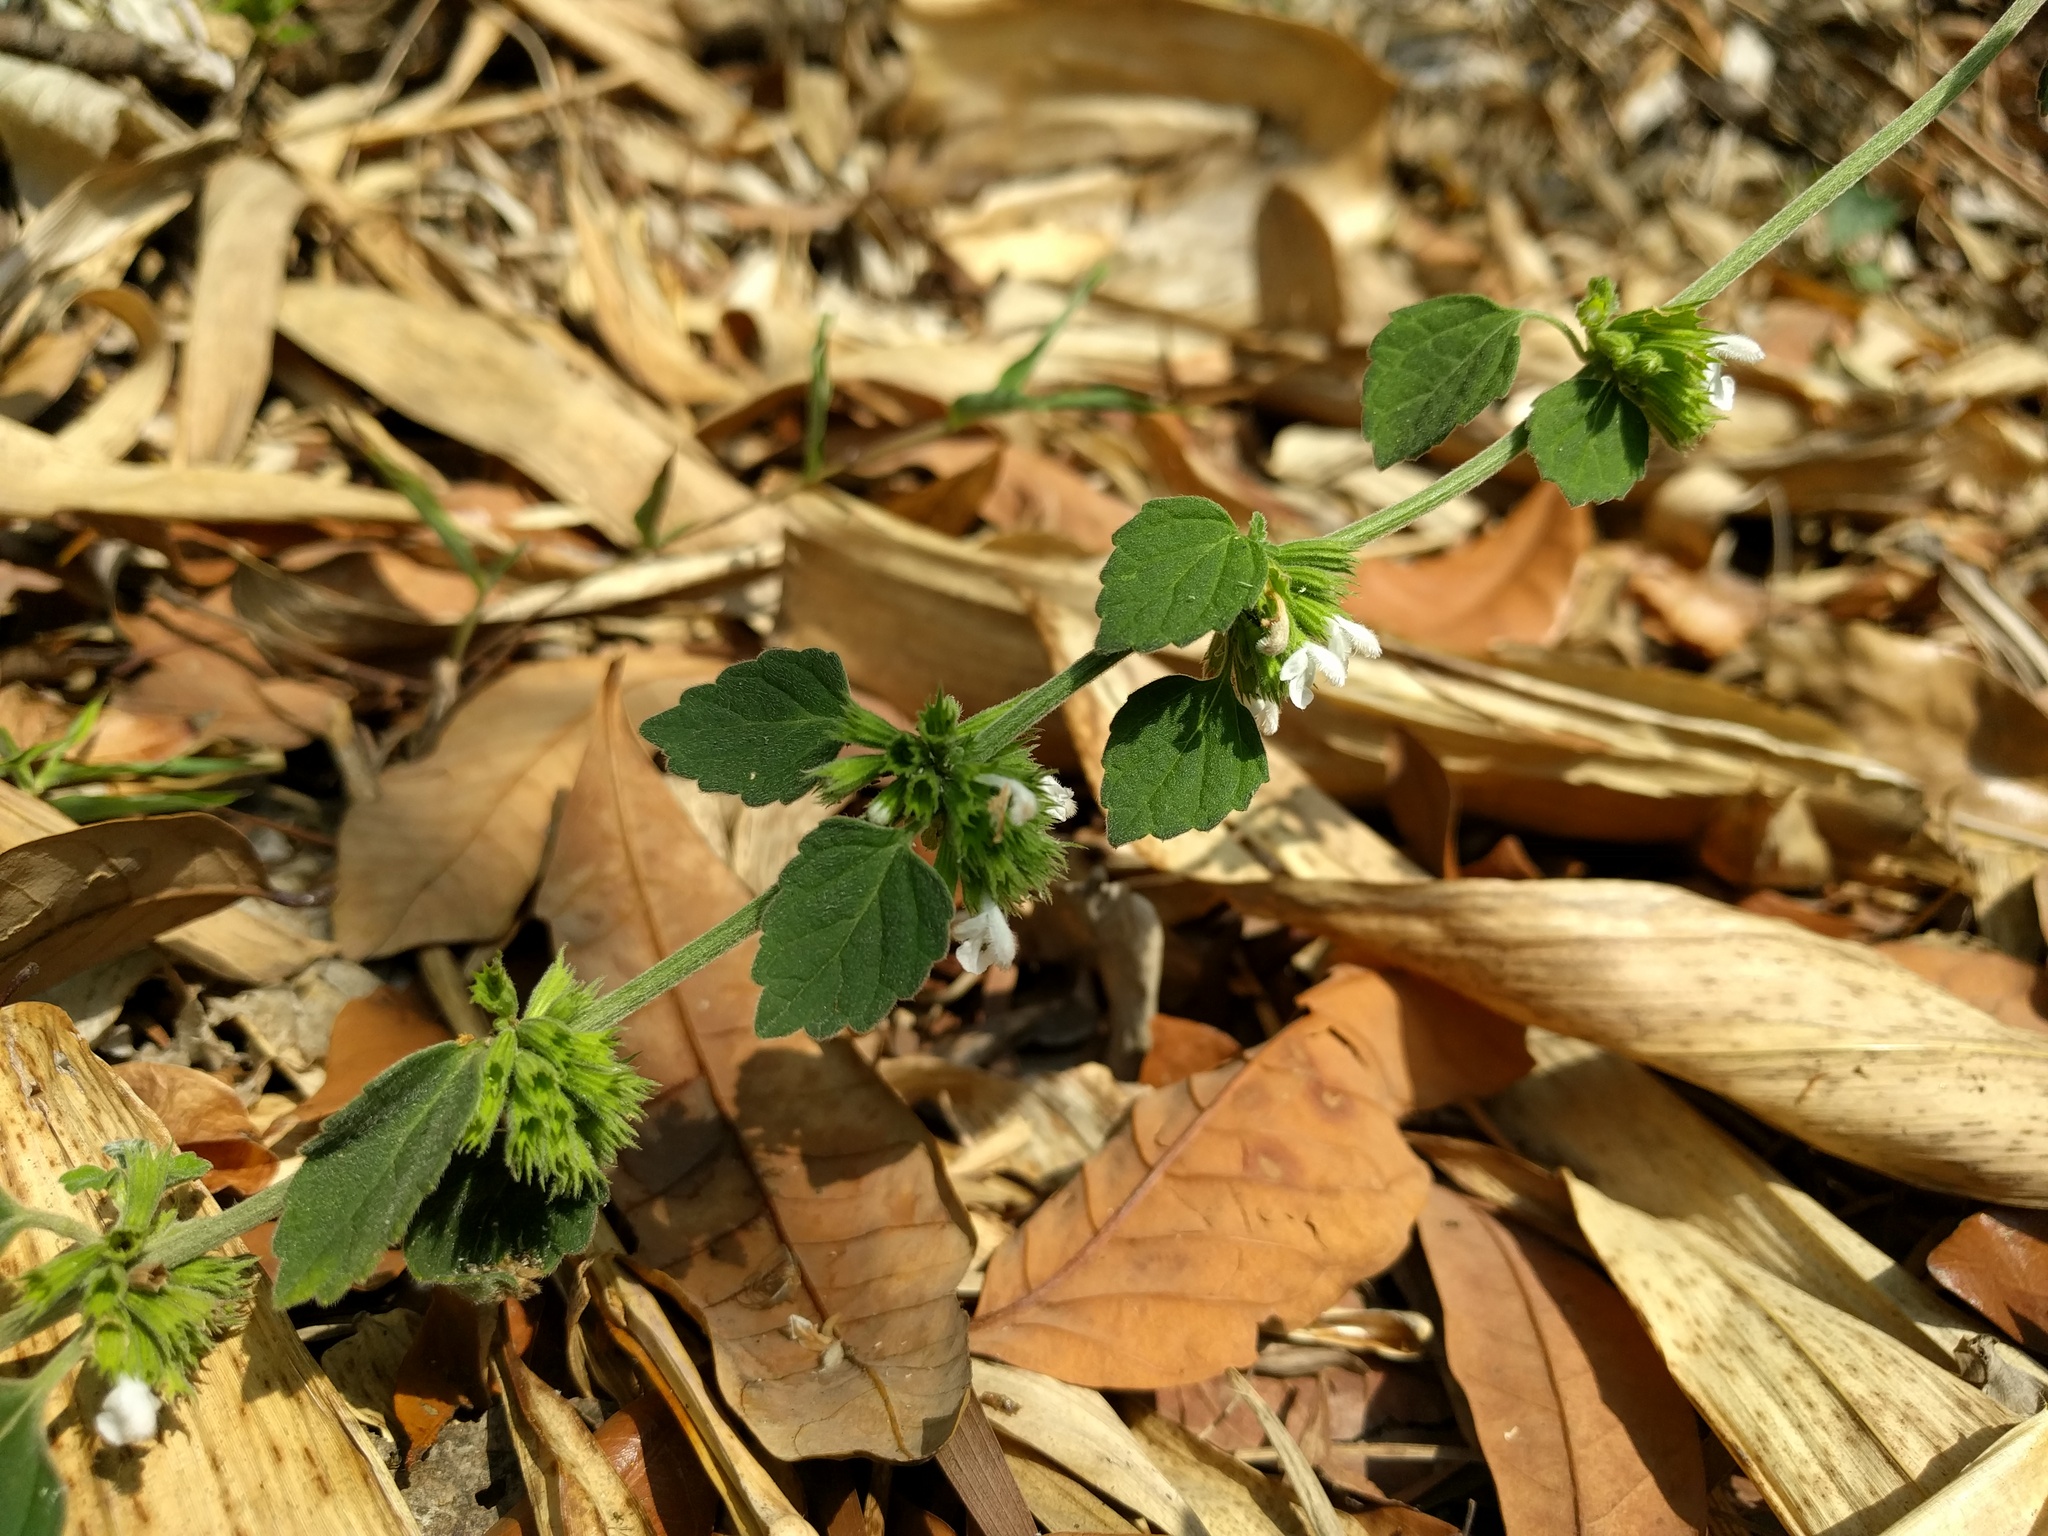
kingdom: Plantae
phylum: Tracheophyta
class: Magnoliopsida
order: Lamiales
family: Lamiaceae
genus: Leucas
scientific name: Leucas chinensis
